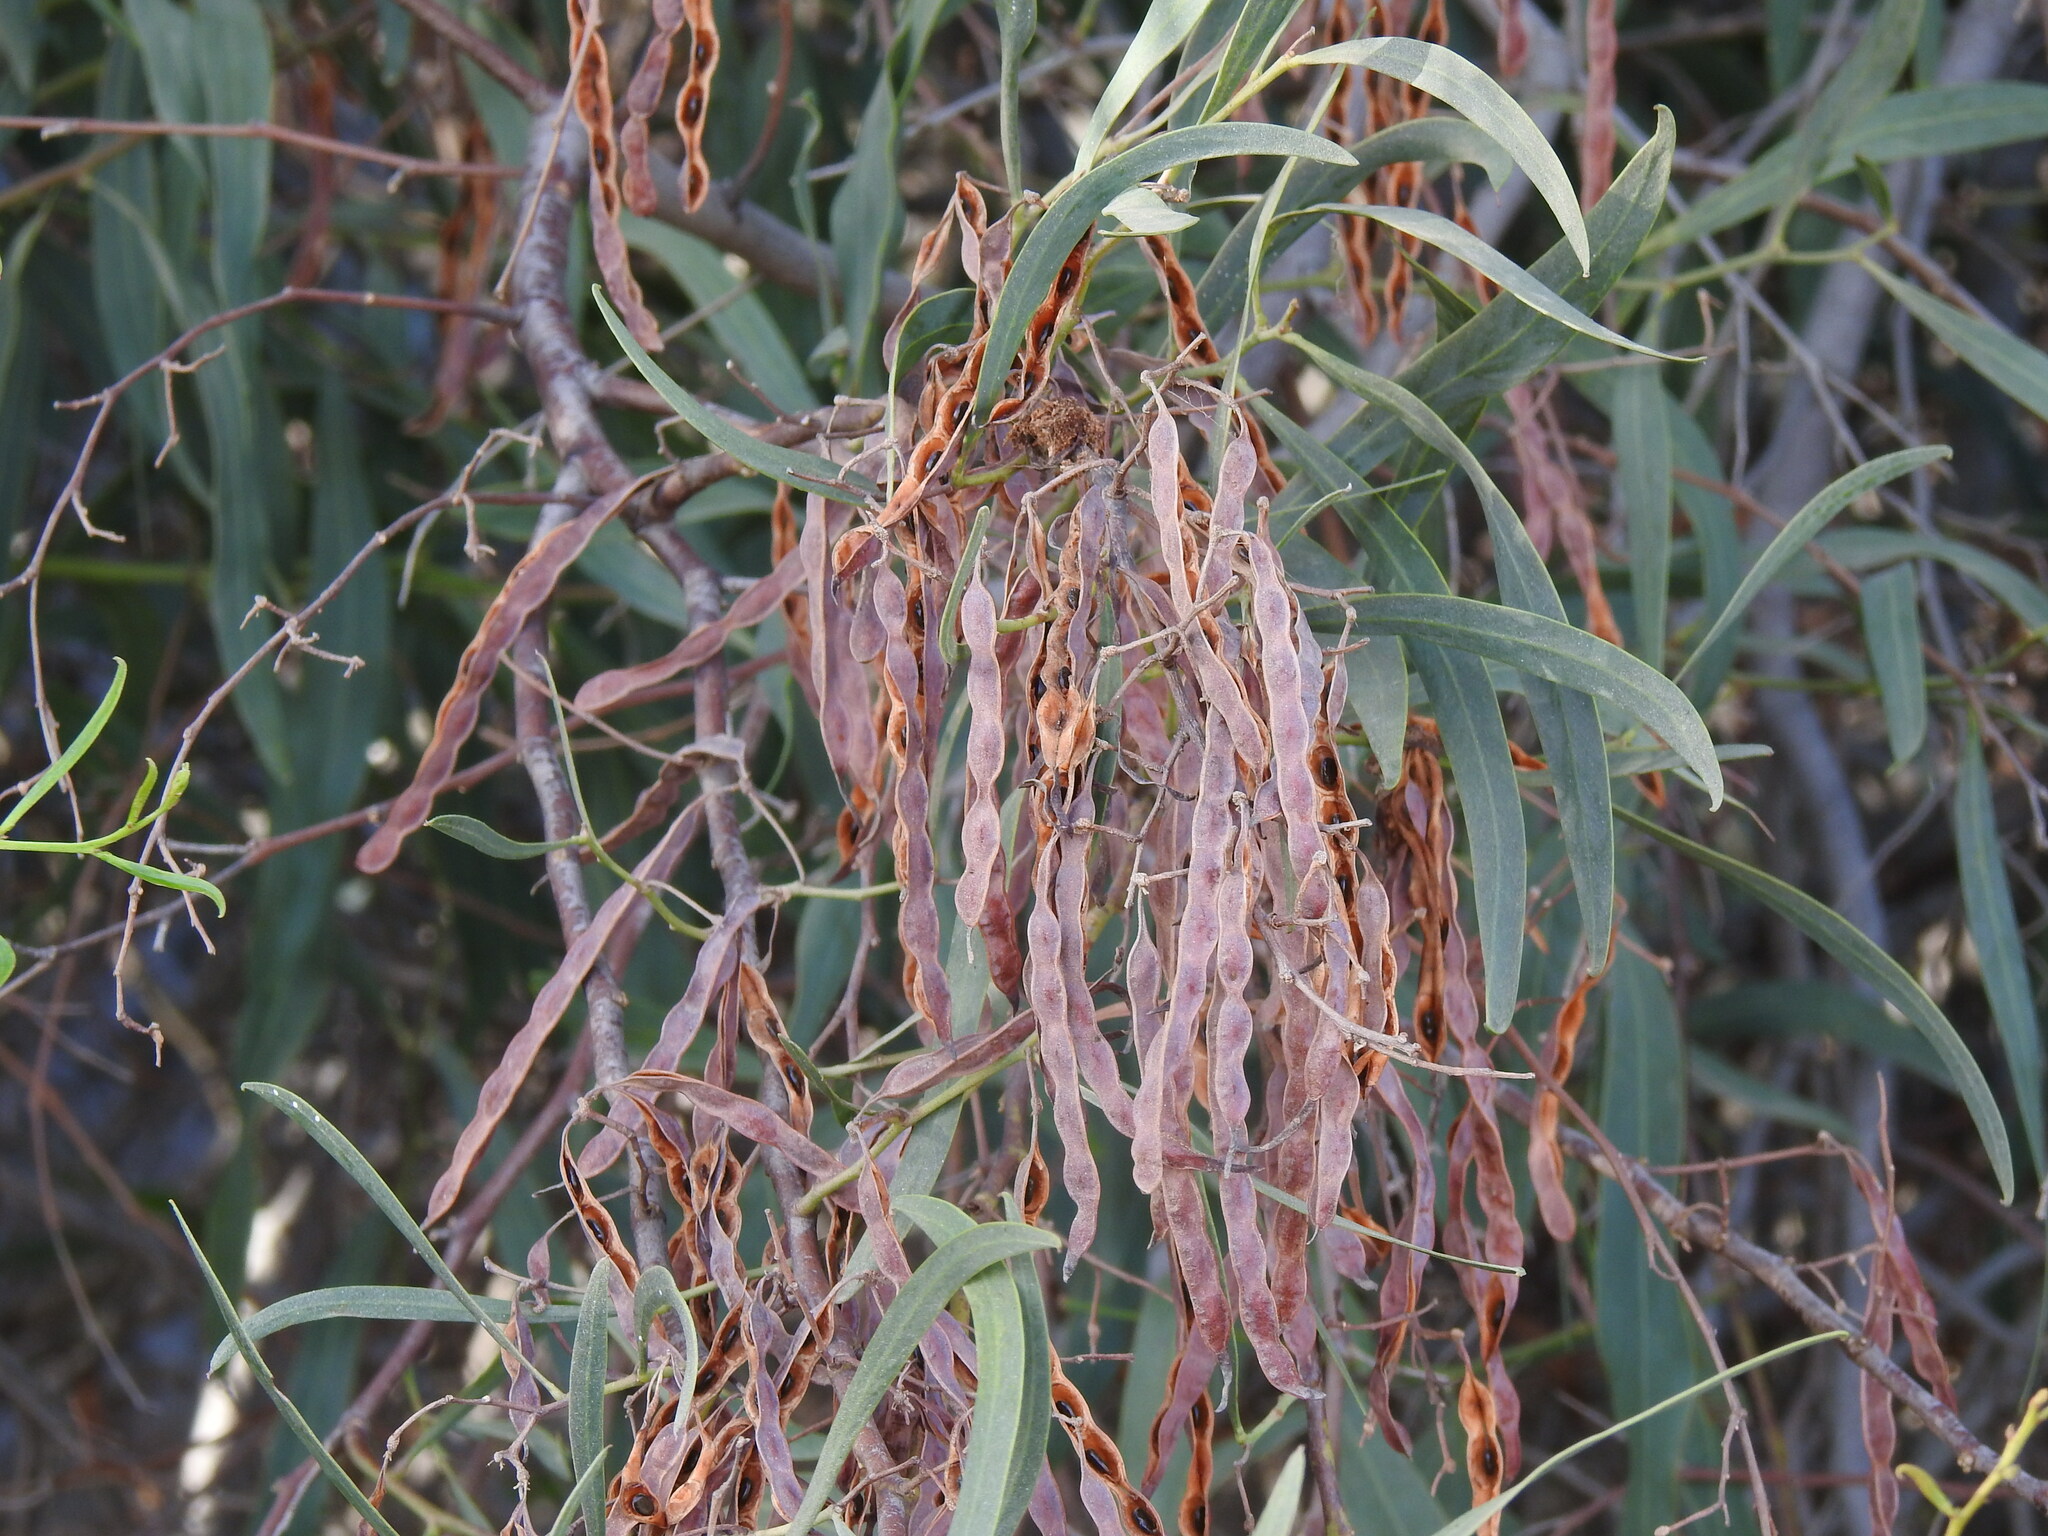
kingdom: Plantae
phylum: Tracheophyta
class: Magnoliopsida
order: Fabales
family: Fabaceae
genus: Acacia
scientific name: Acacia saligna
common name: Orange wattle
